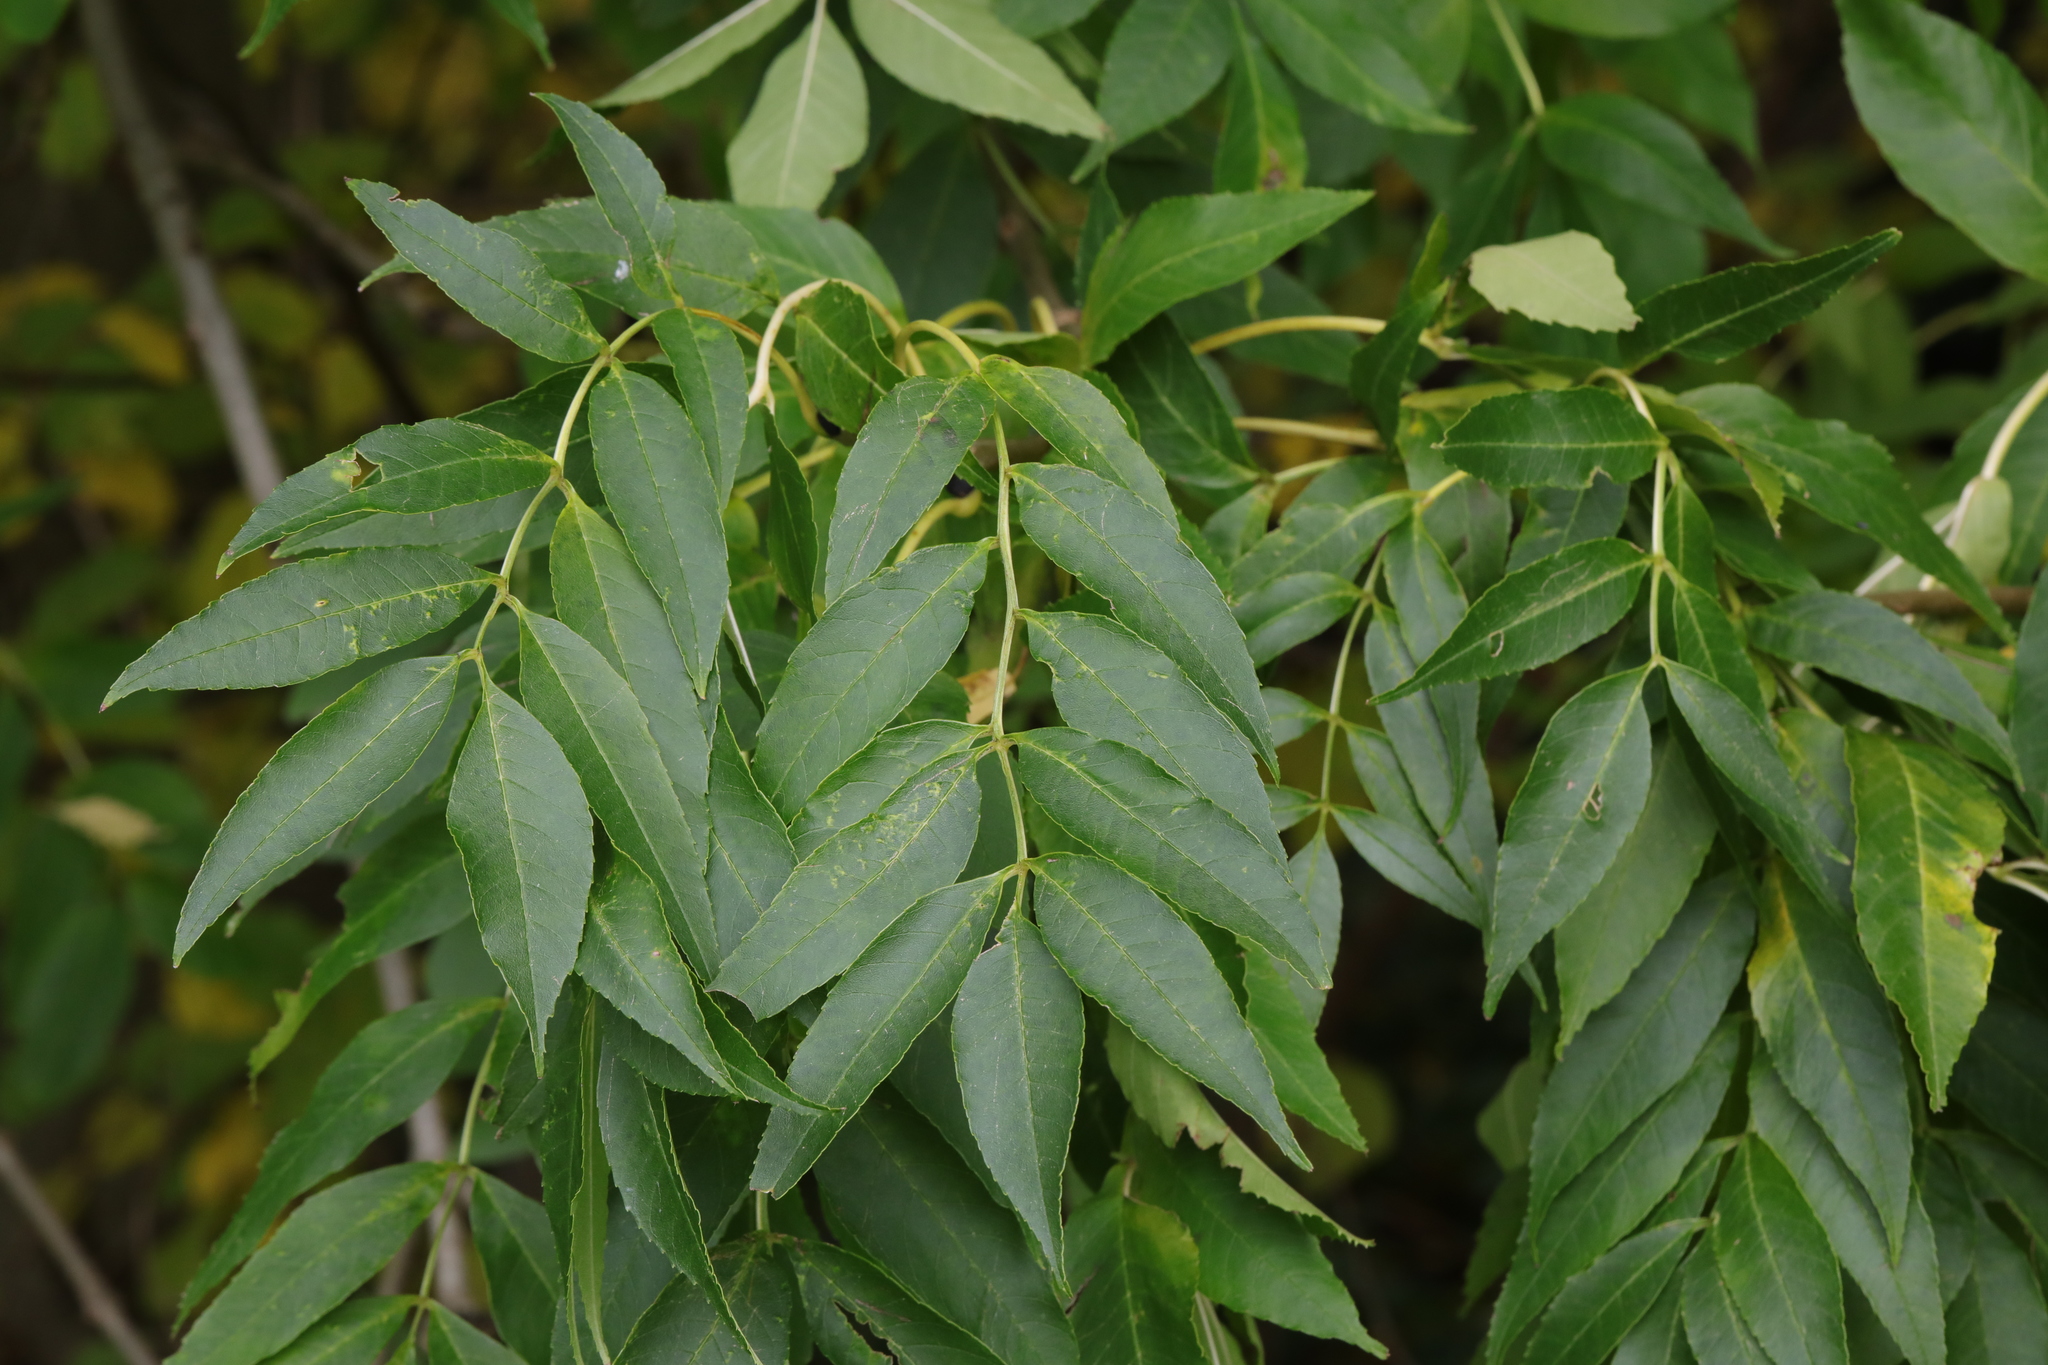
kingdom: Plantae
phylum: Tracheophyta
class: Magnoliopsida
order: Lamiales
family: Oleaceae
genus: Fraxinus
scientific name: Fraxinus excelsior
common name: European ash
